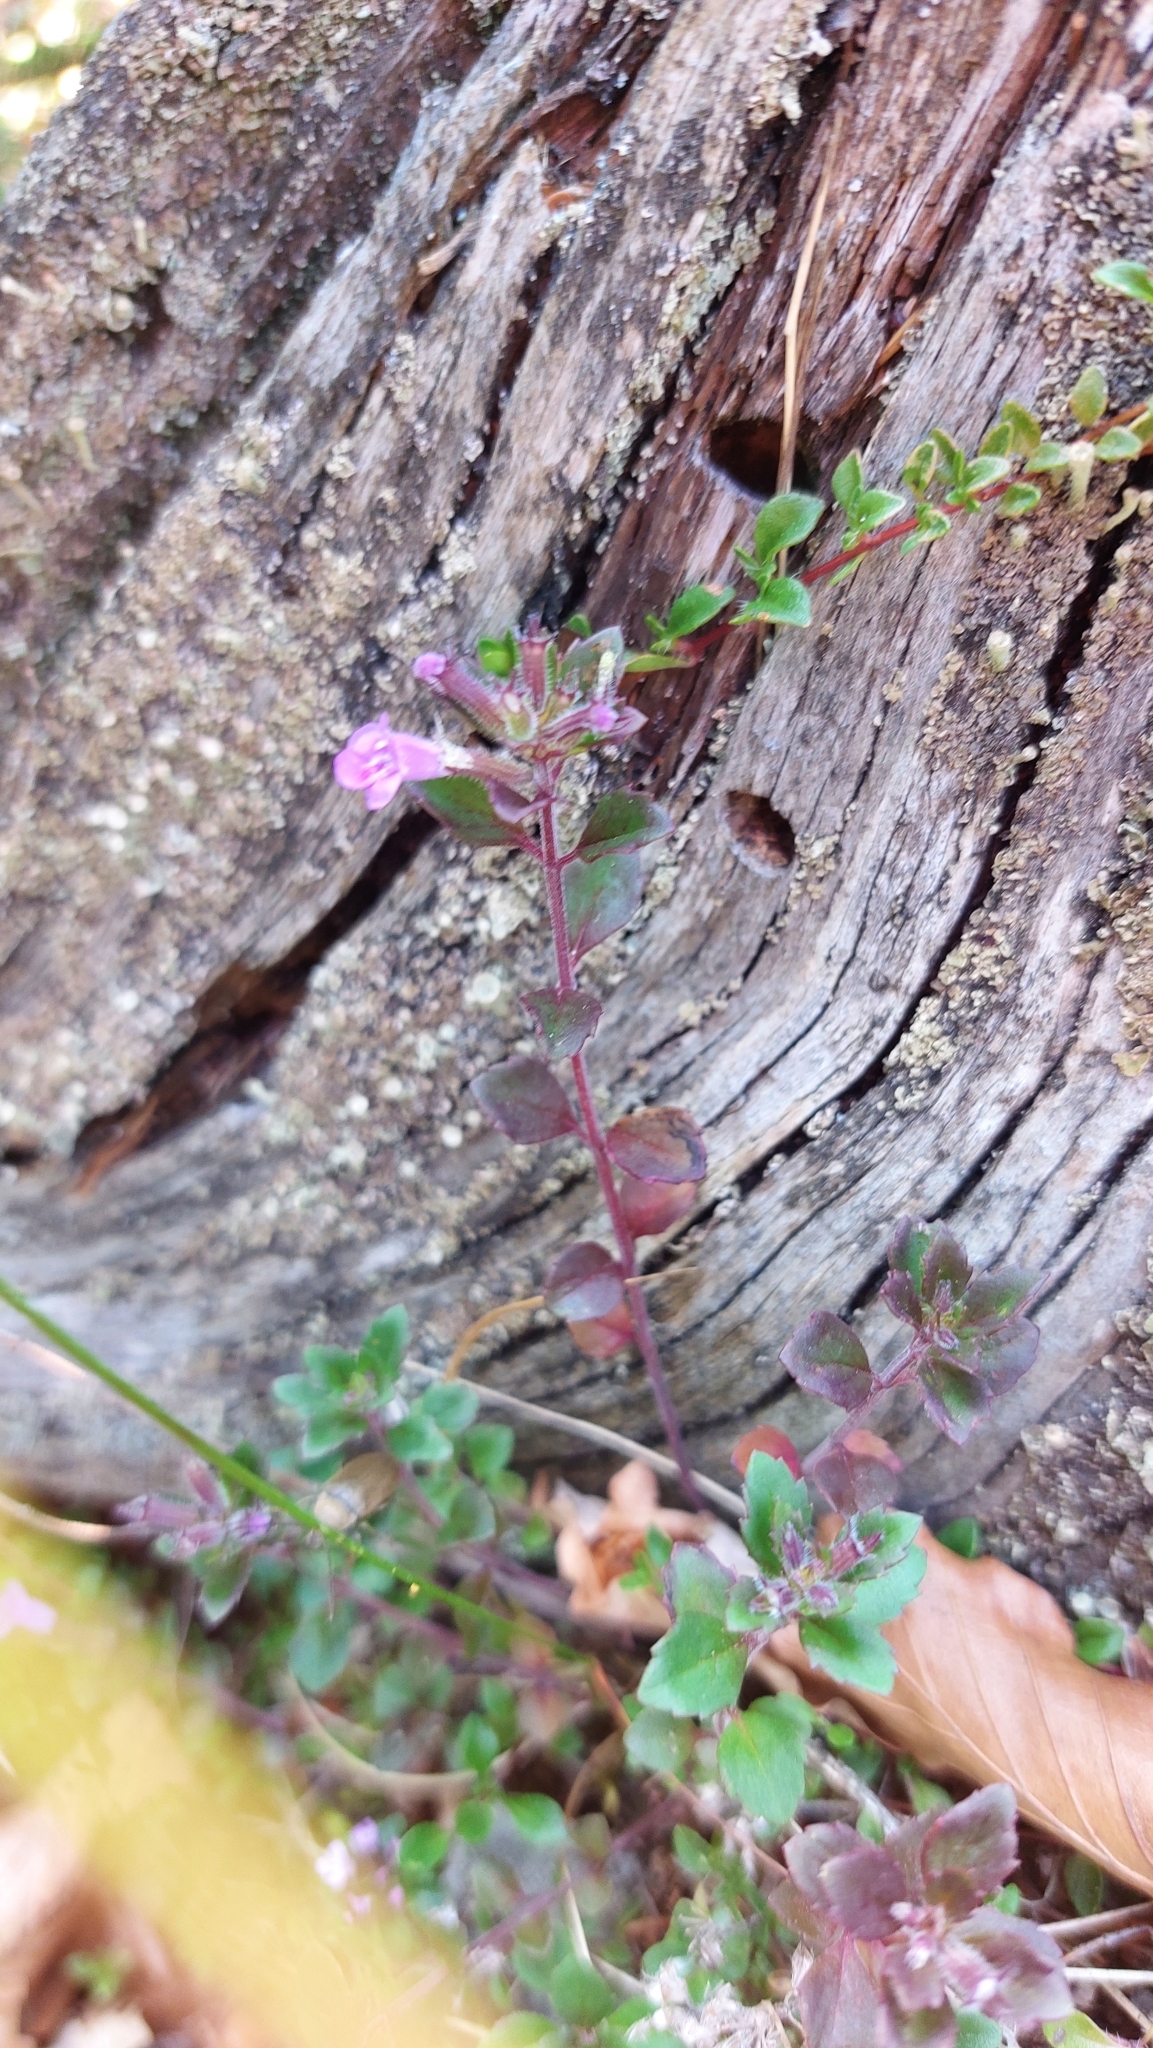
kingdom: Plantae
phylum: Tracheophyta
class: Magnoliopsida
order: Lamiales
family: Lamiaceae
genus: Clinopodium
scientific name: Clinopodium alpinum
